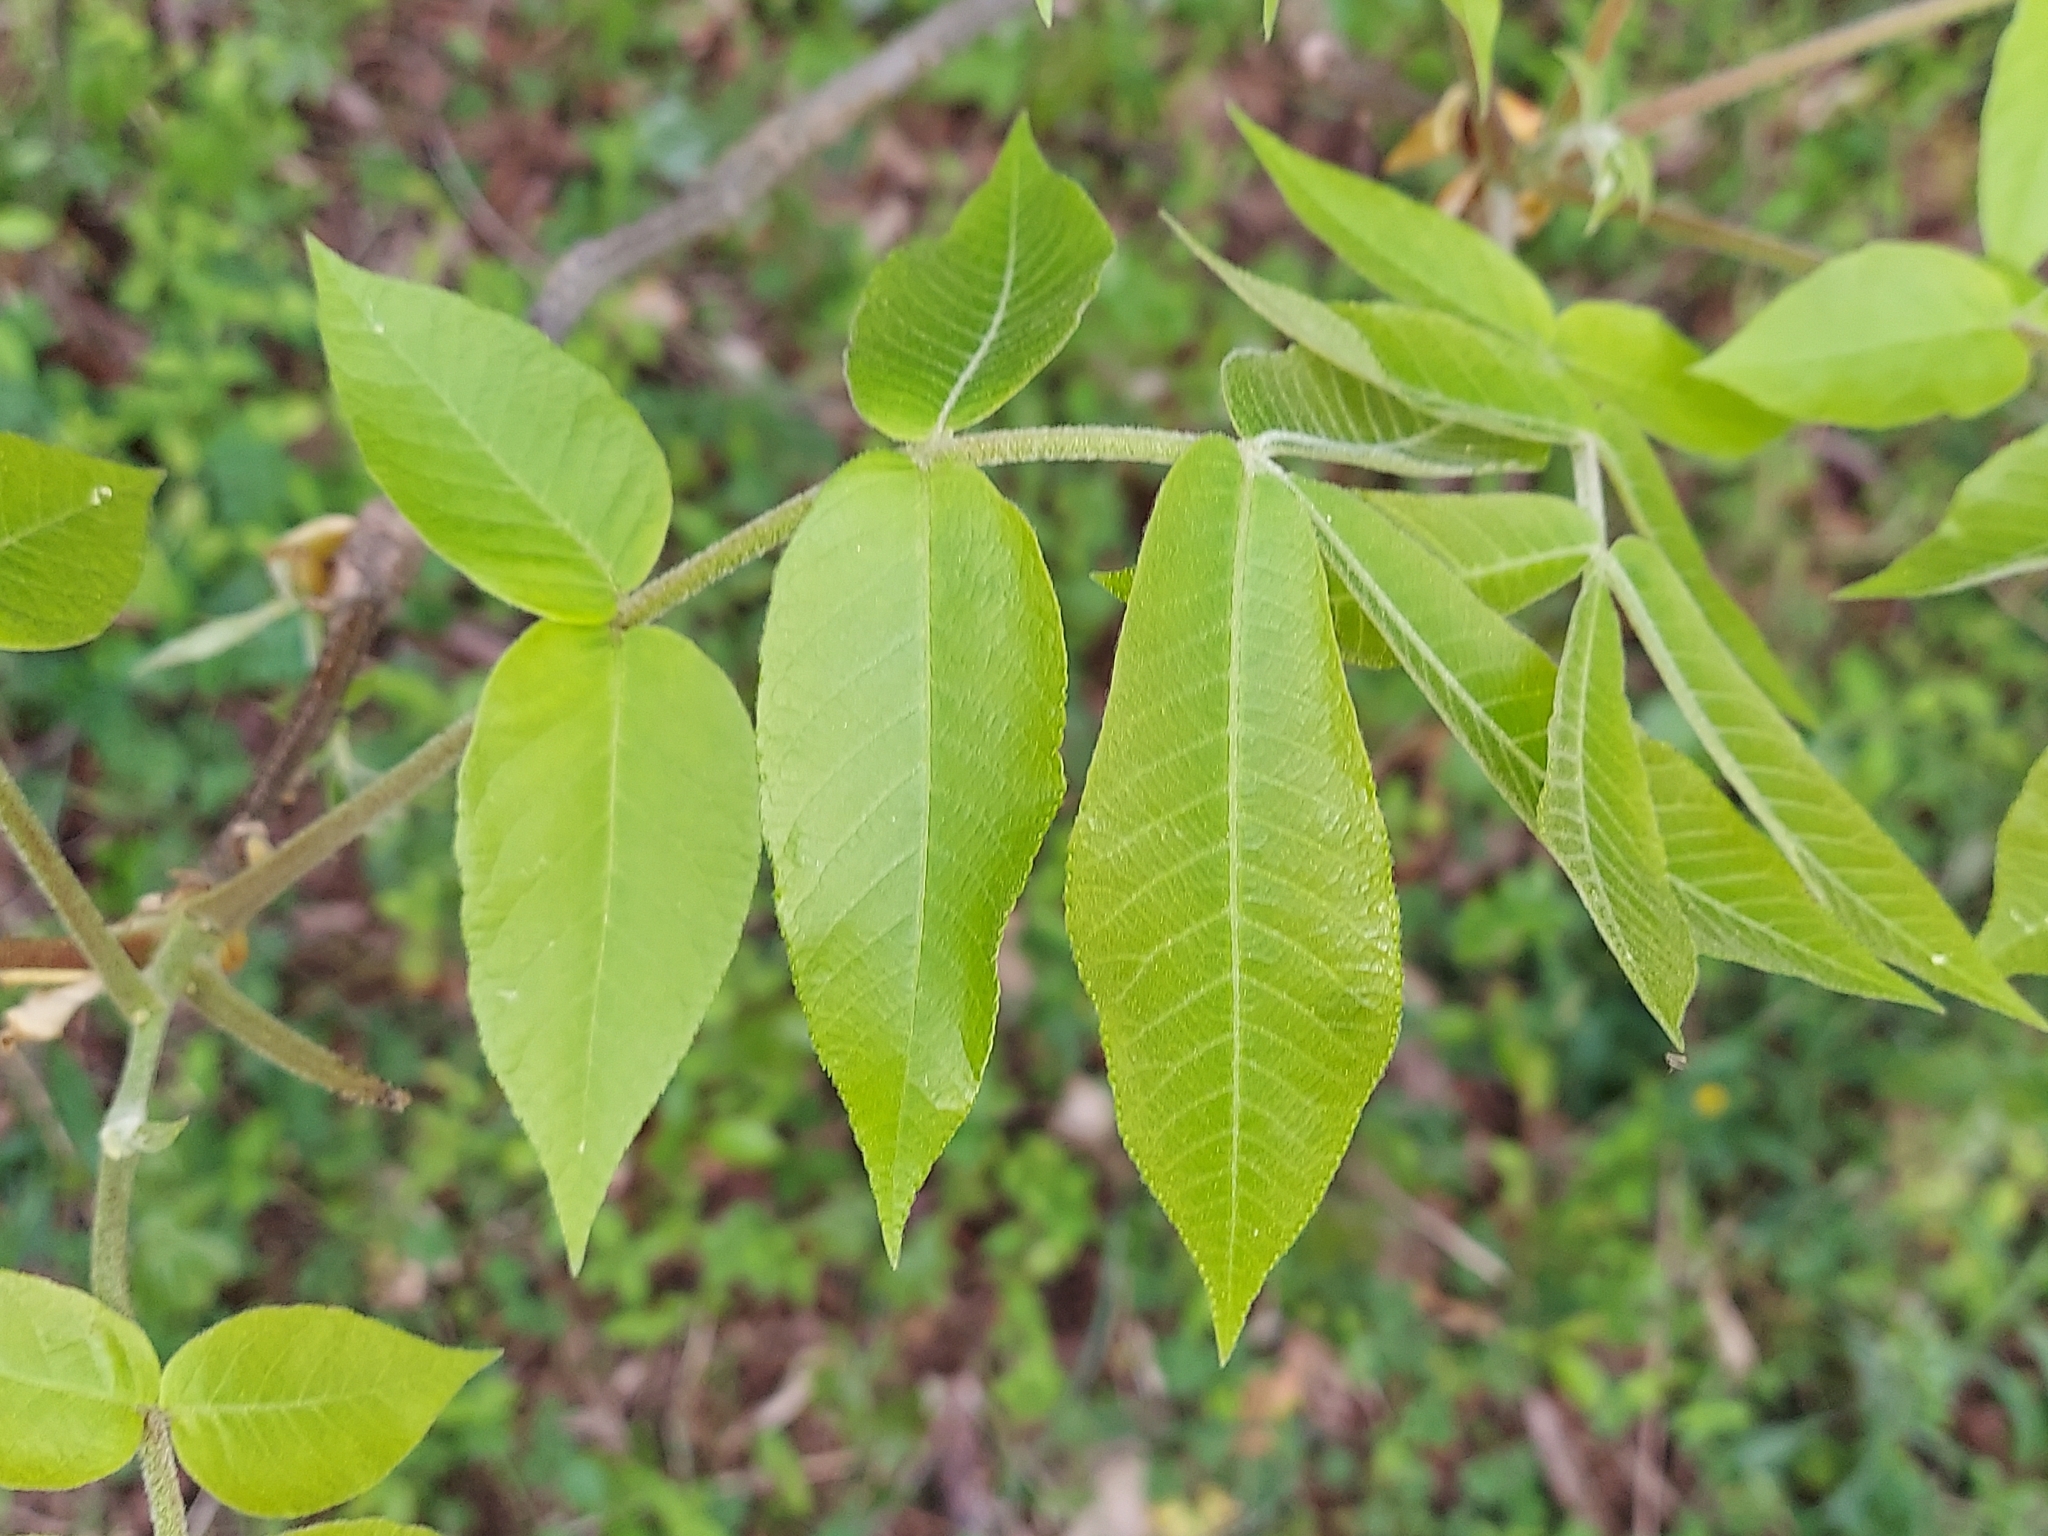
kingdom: Plantae
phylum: Tracheophyta
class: Magnoliopsida
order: Fagales
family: Juglandaceae
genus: Carya
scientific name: Carya alba
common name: Mockernut hickory
